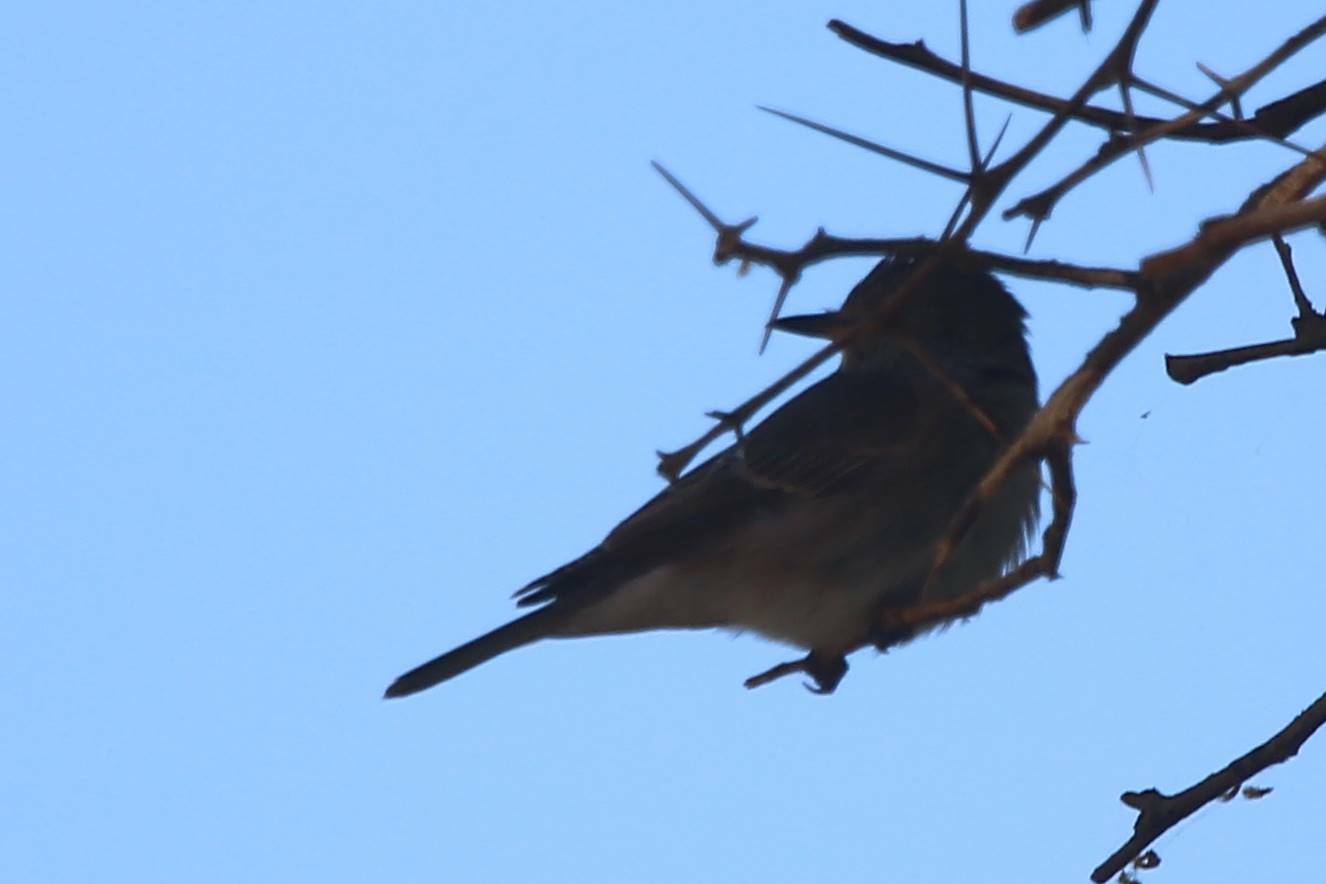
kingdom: Animalia
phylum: Chordata
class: Aves
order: Passeriformes
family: Muscicapidae
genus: Muscicapa
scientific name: Muscicapa striata
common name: Spotted flycatcher
